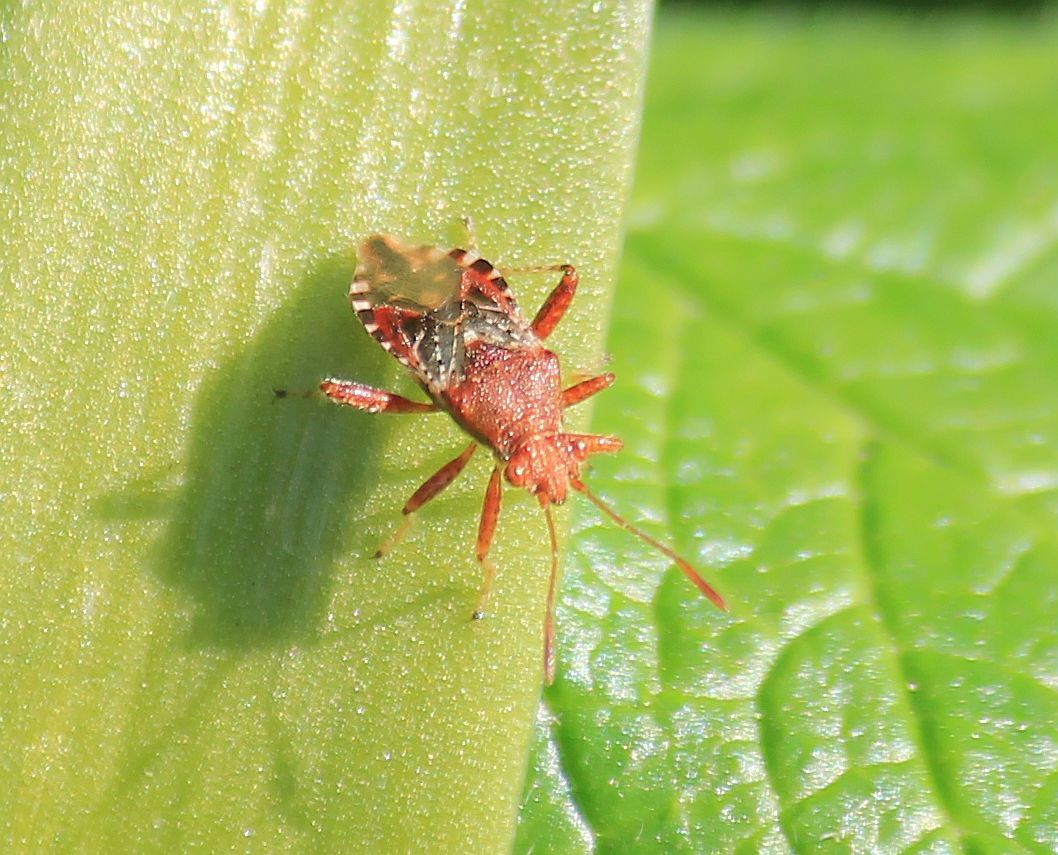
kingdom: Animalia
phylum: Arthropoda
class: Insecta
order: Hemiptera
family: Rhopalidae
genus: Rhopalus
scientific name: Rhopalus subrufus
